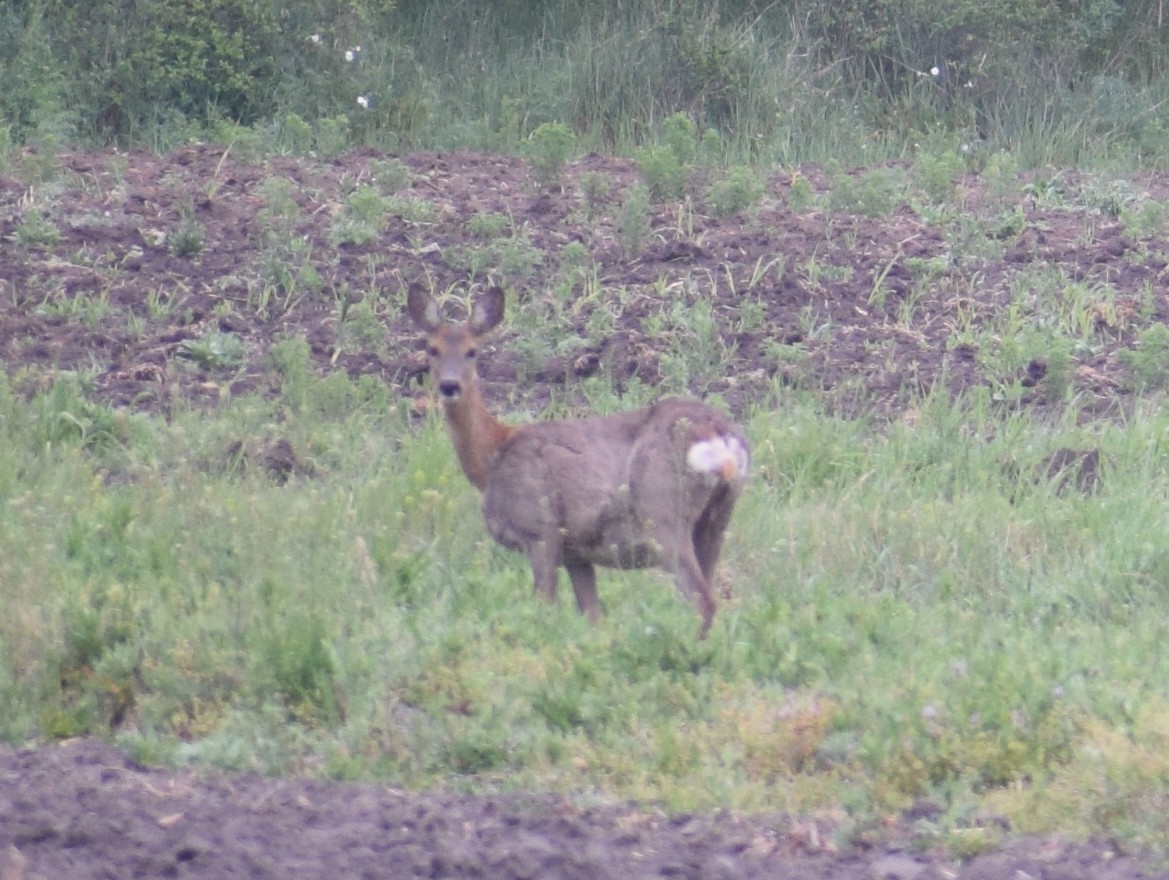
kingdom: Animalia
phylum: Chordata
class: Mammalia
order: Artiodactyla
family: Cervidae
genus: Capreolus
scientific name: Capreolus capreolus
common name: Western roe deer
